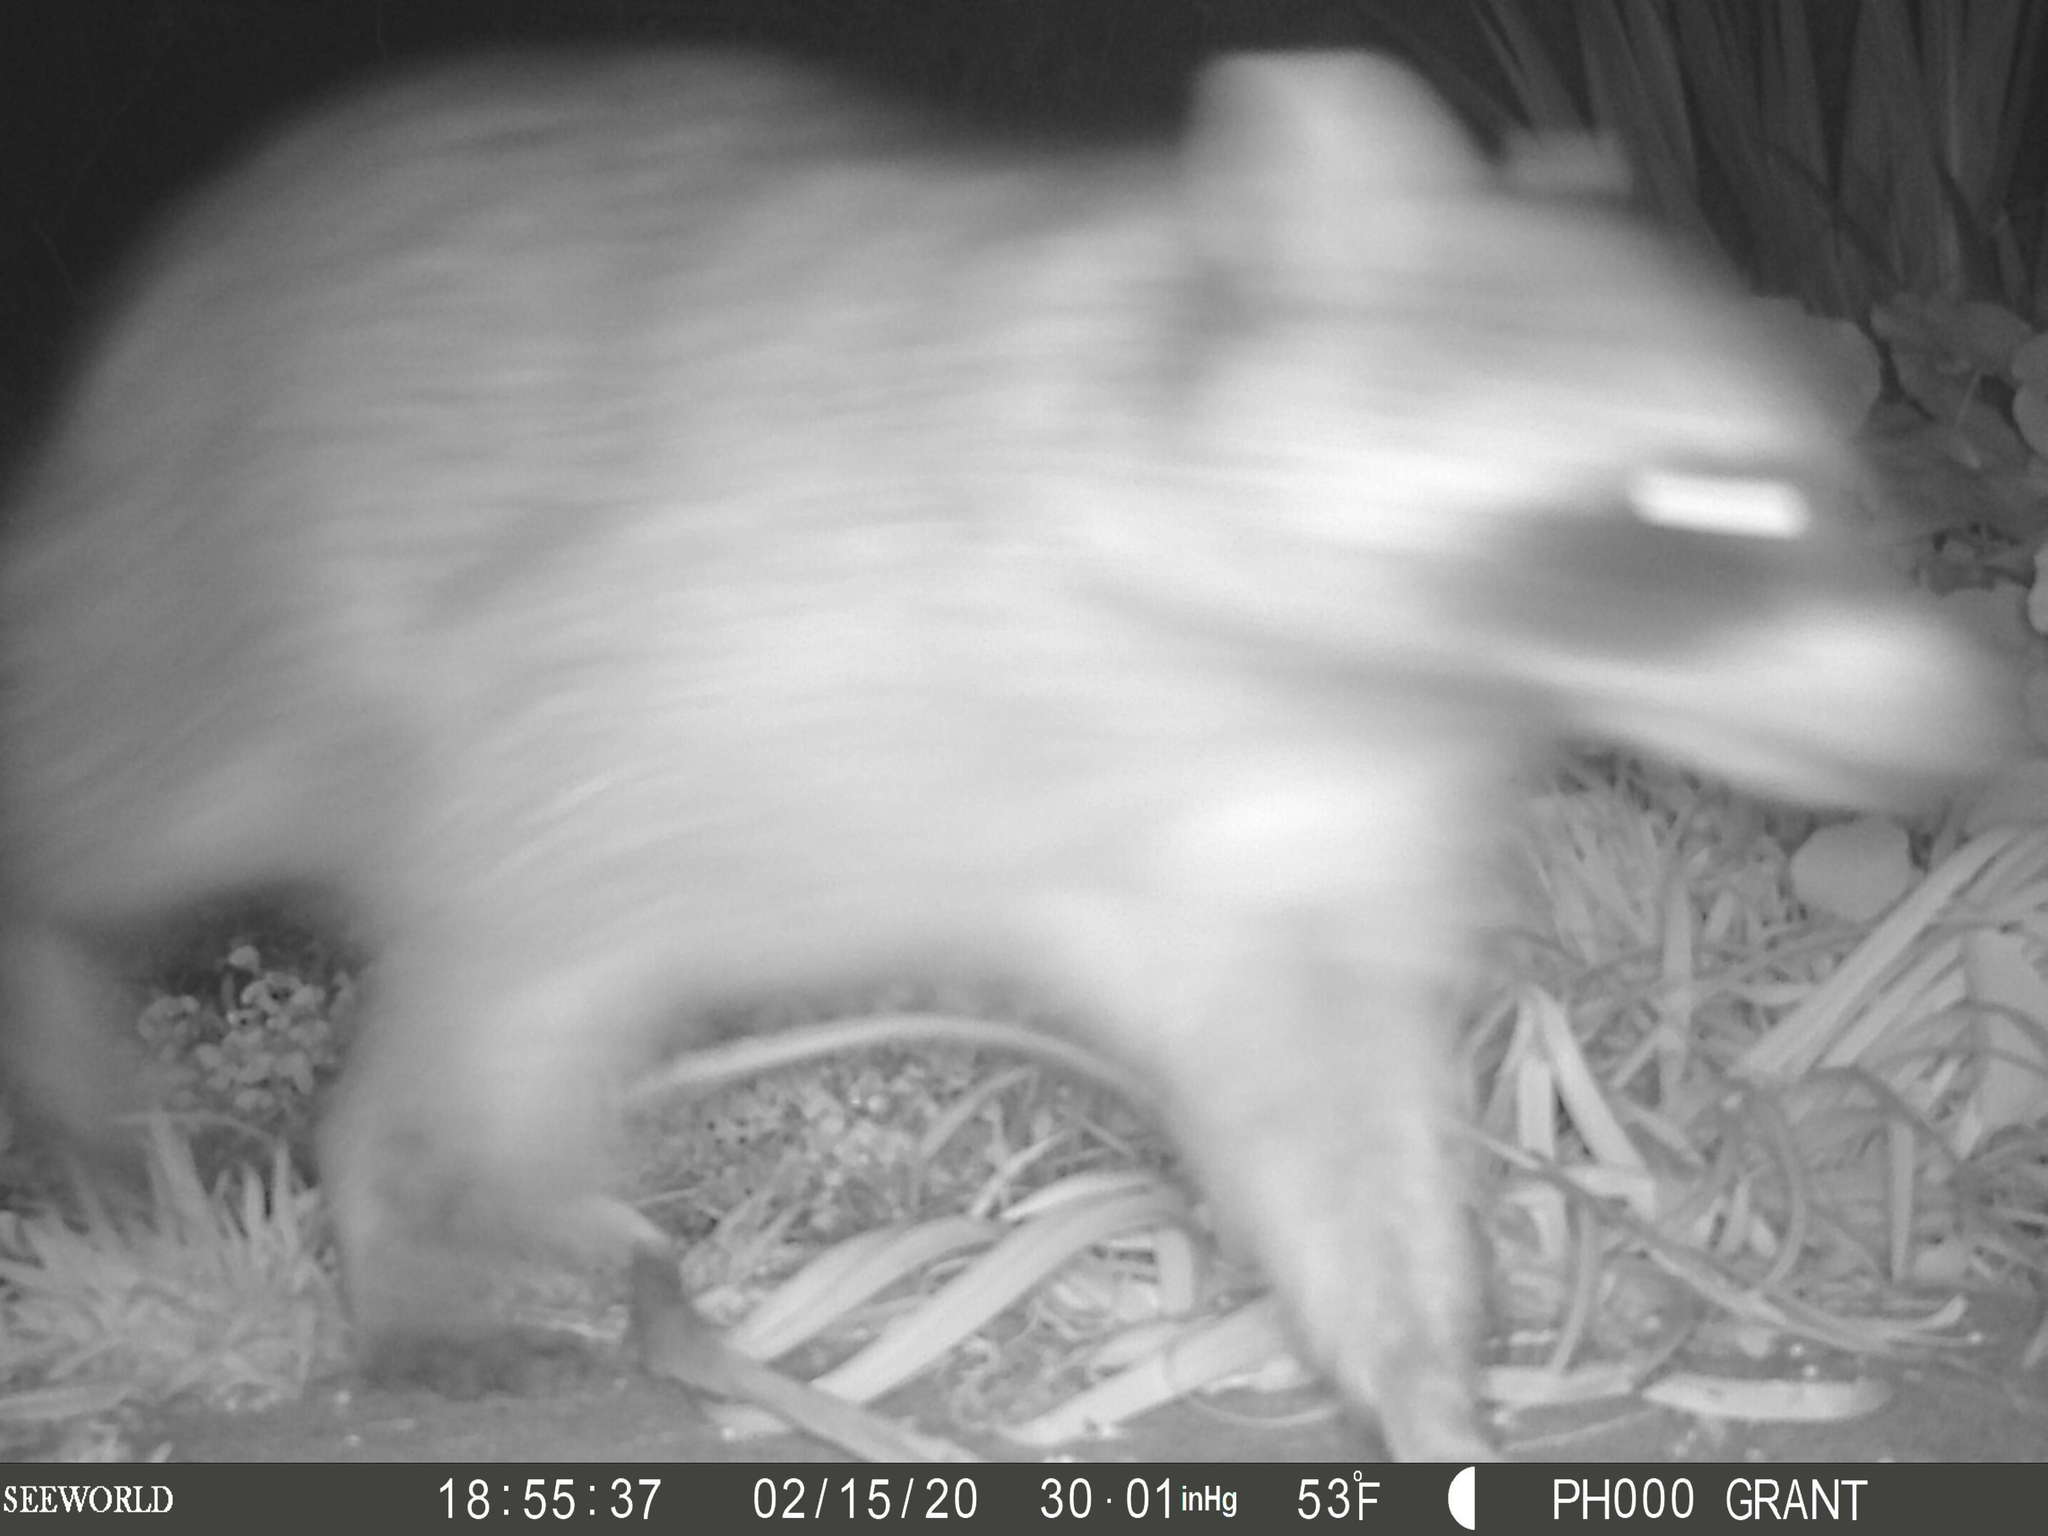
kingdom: Animalia
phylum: Chordata
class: Mammalia
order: Carnivora
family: Procyonidae
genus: Procyon
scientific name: Procyon lotor
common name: Raccoon
